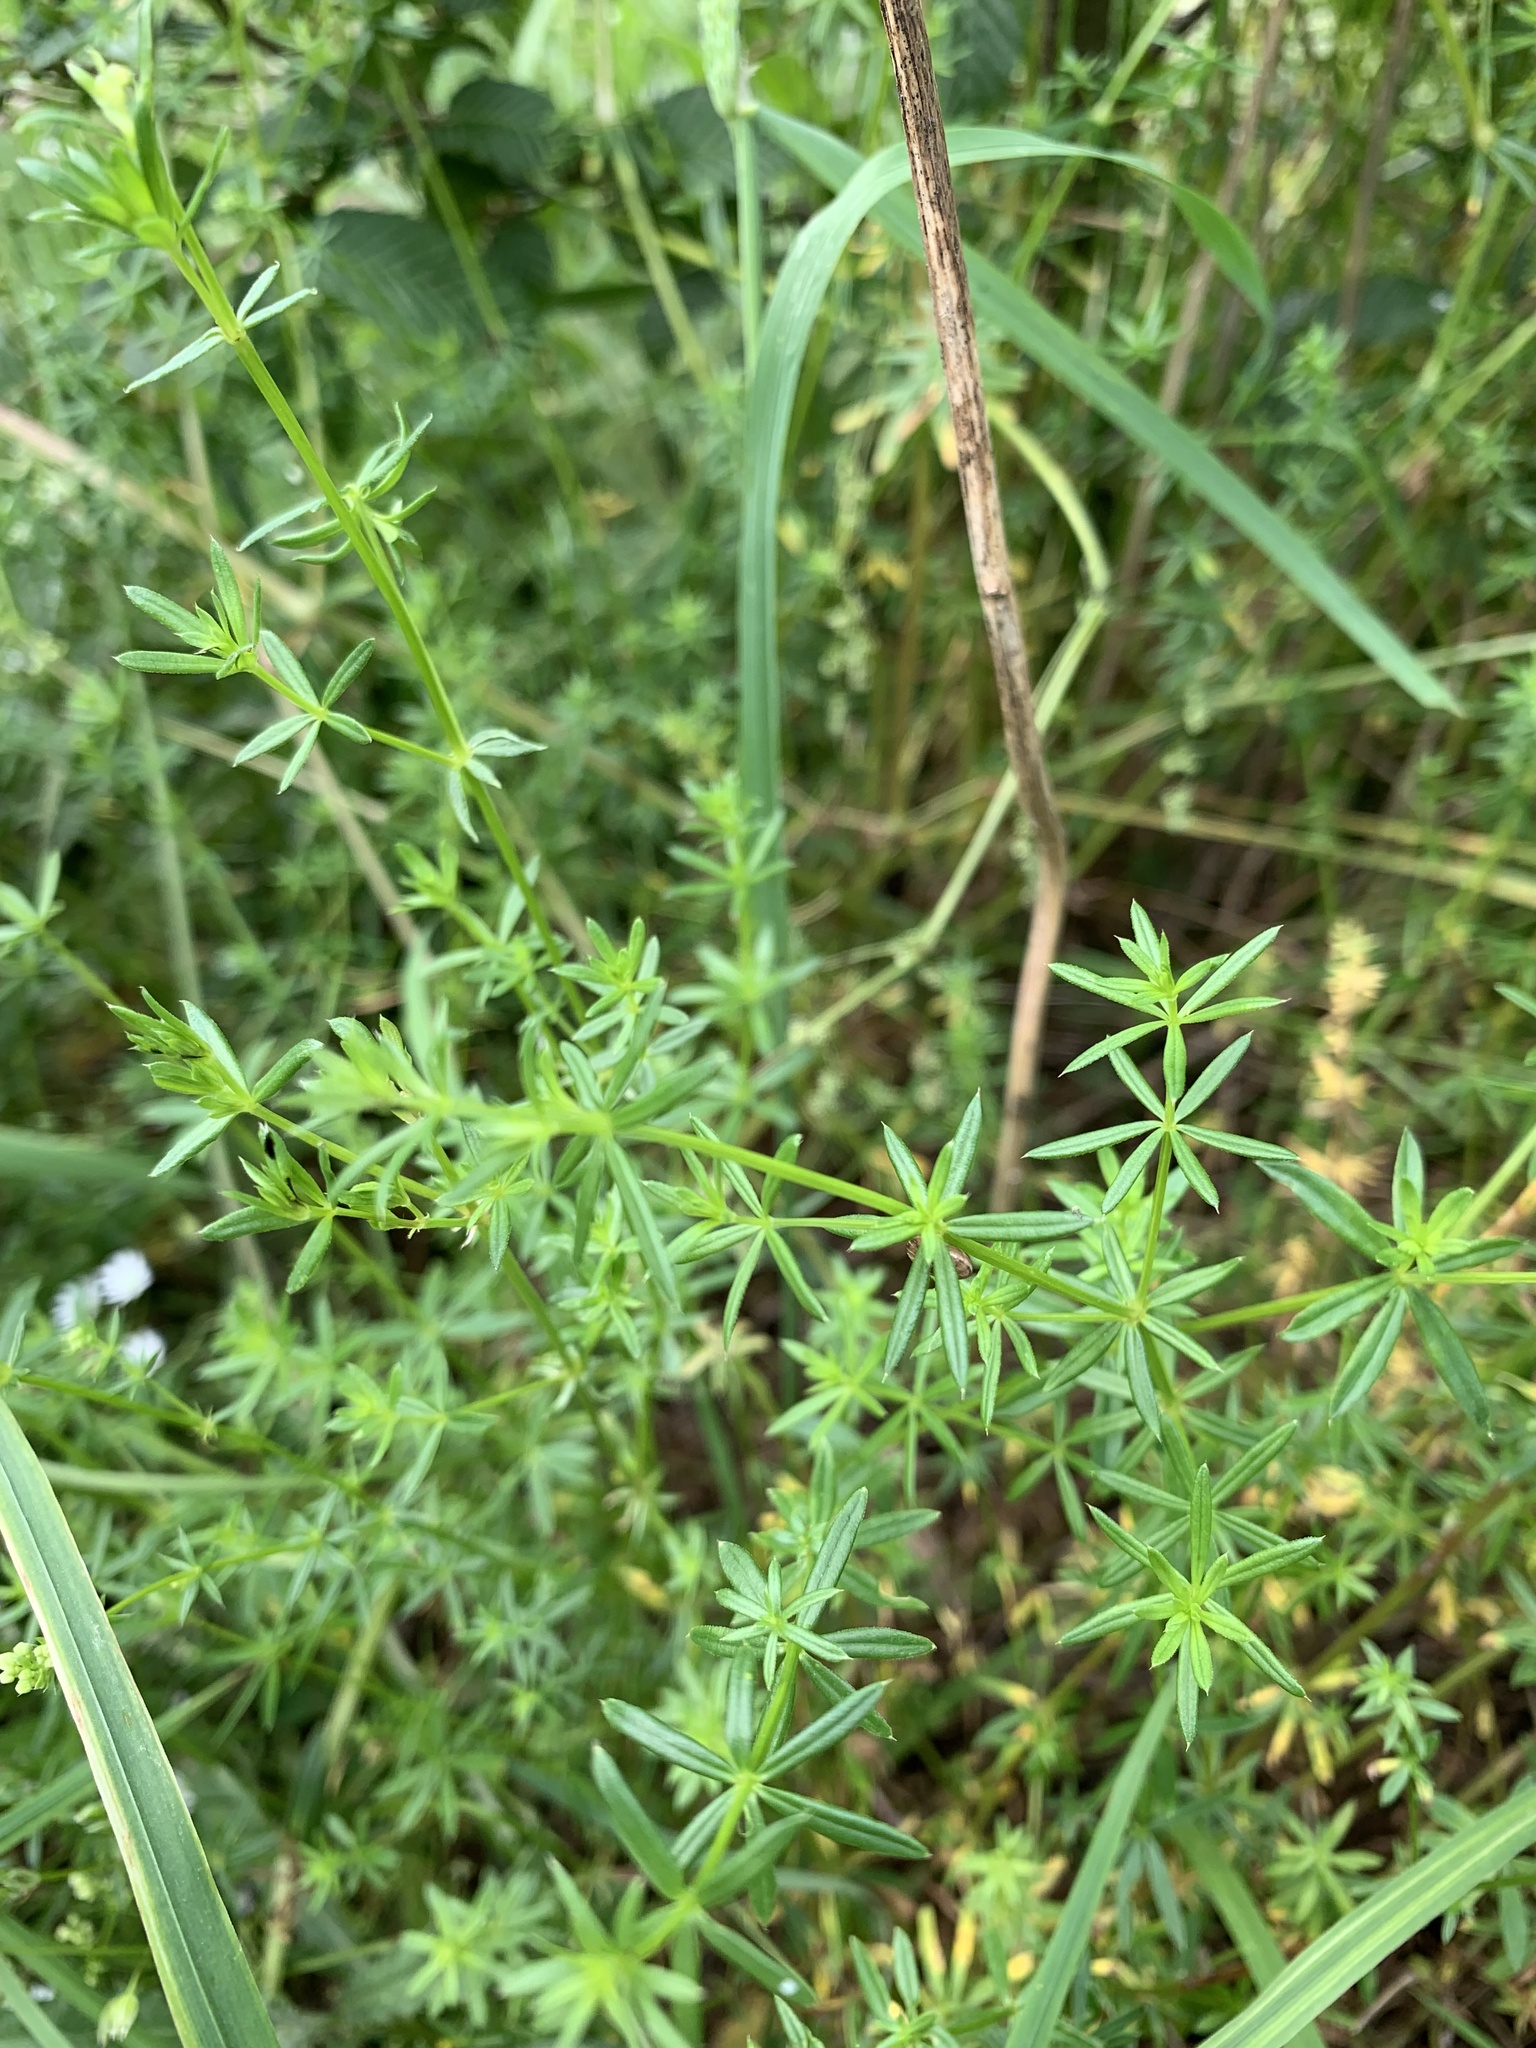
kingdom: Plantae
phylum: Tracheophyta
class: Magnoliopsida
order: Gentianales
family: Rubiaceae
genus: Galium
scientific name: Galium mollugo
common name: Hedge bedstraw
